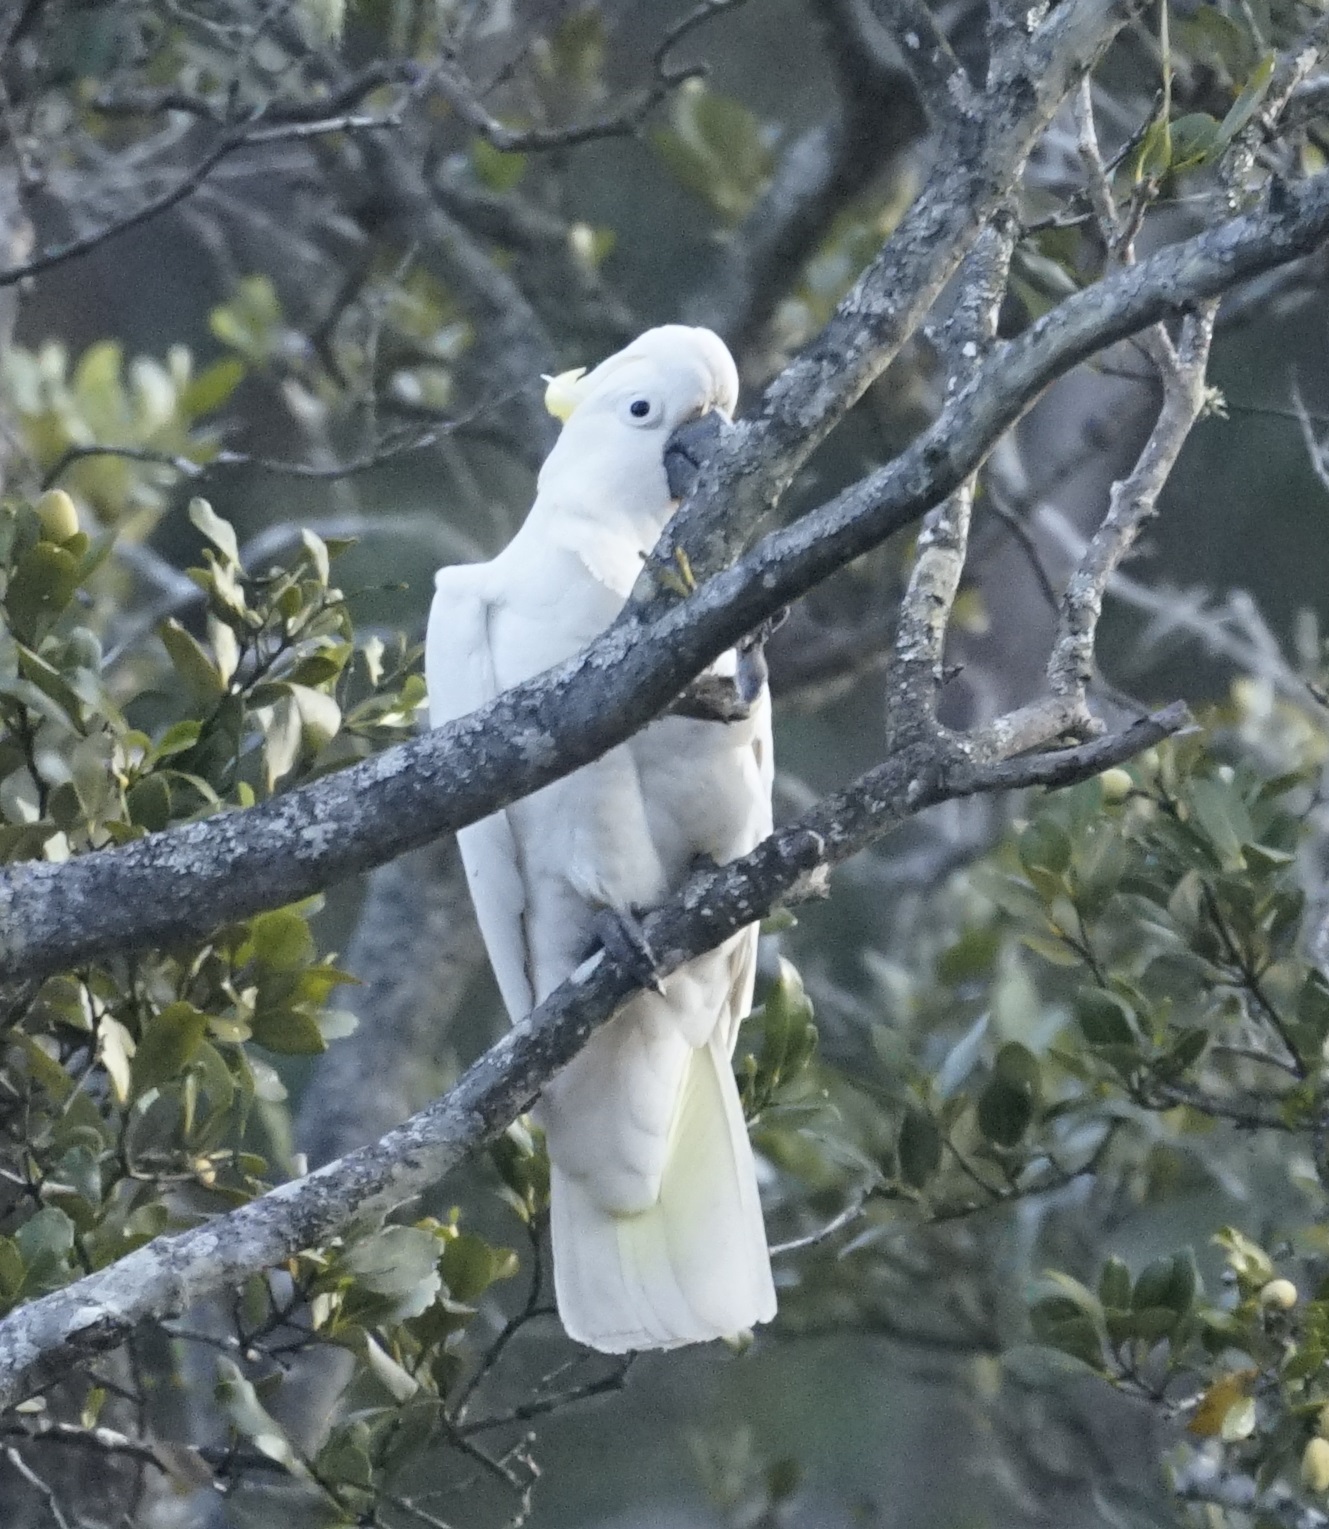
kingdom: Animalia
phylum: Chordata
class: Aves
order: Psittaciformes
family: Psittacidae
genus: Cacatua
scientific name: Cacatua galerita
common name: Sulphur-crested cockatoo
